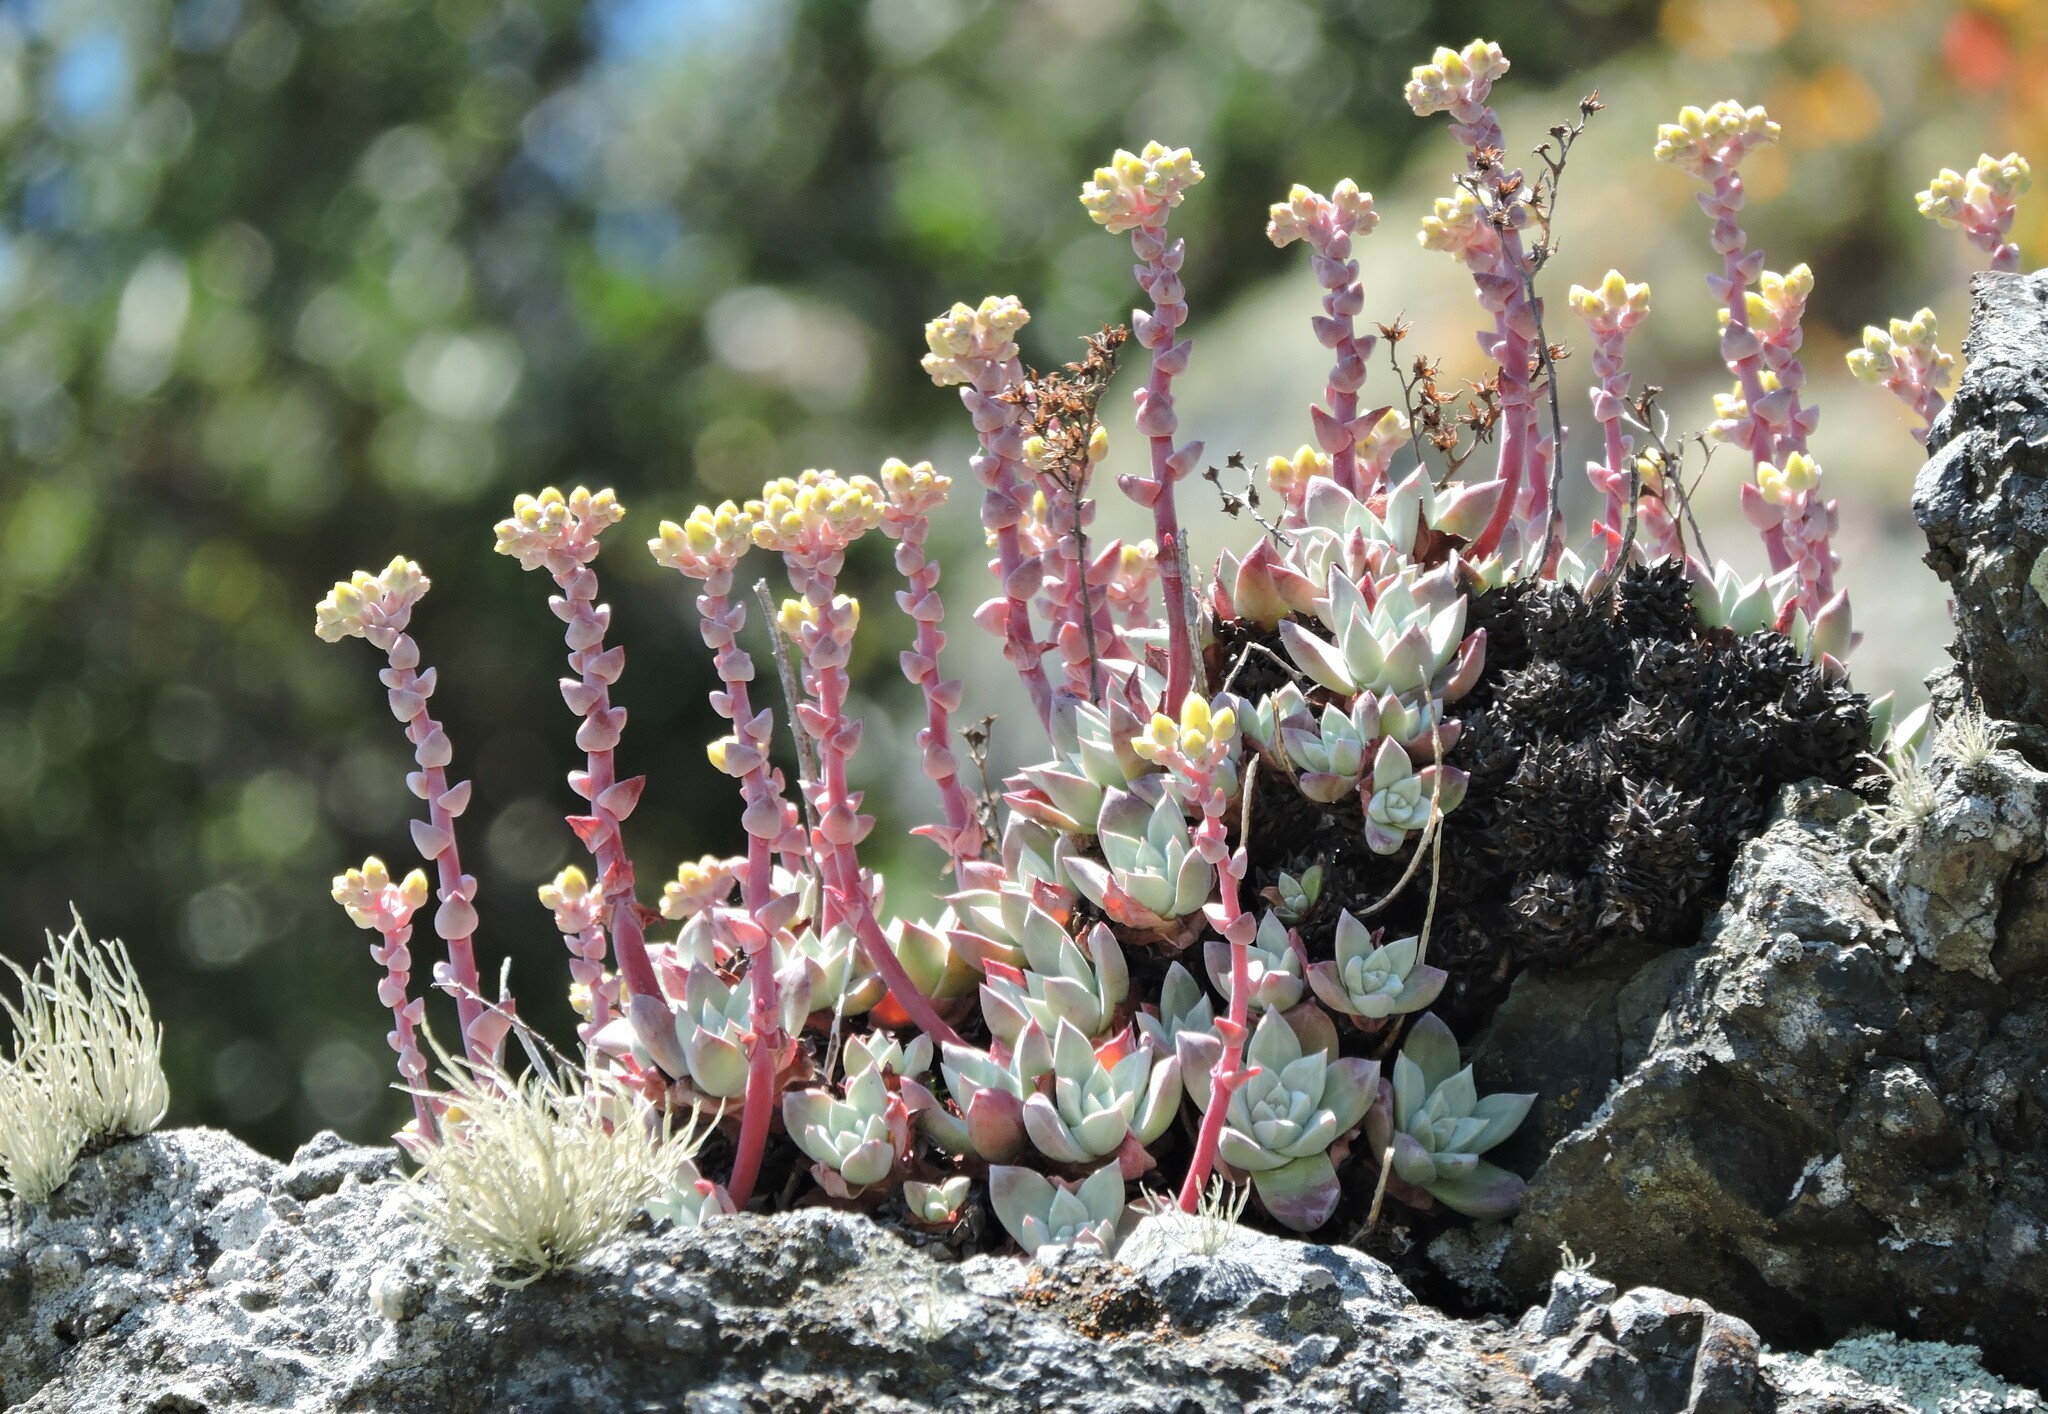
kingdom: Plantae
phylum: Tracheophyta
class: Magnoliopsida
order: Saxifragales
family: Crassulaceae
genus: Dudleya
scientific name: Dudleya farinosa
